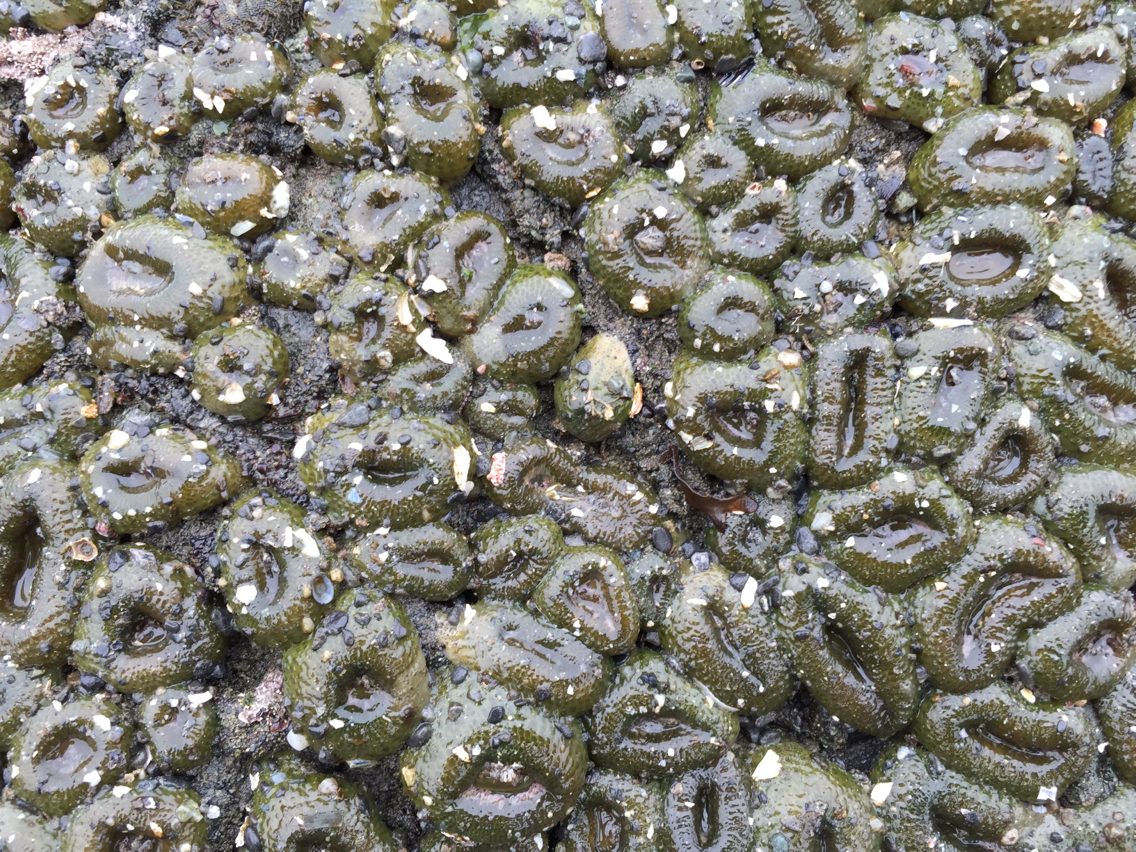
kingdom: Animalia
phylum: Cnidaria
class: Anthozoa
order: Actiniaria
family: Actiniidae
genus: Anthopleura
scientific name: Anthopleura elegantissima
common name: Clonal anemone
